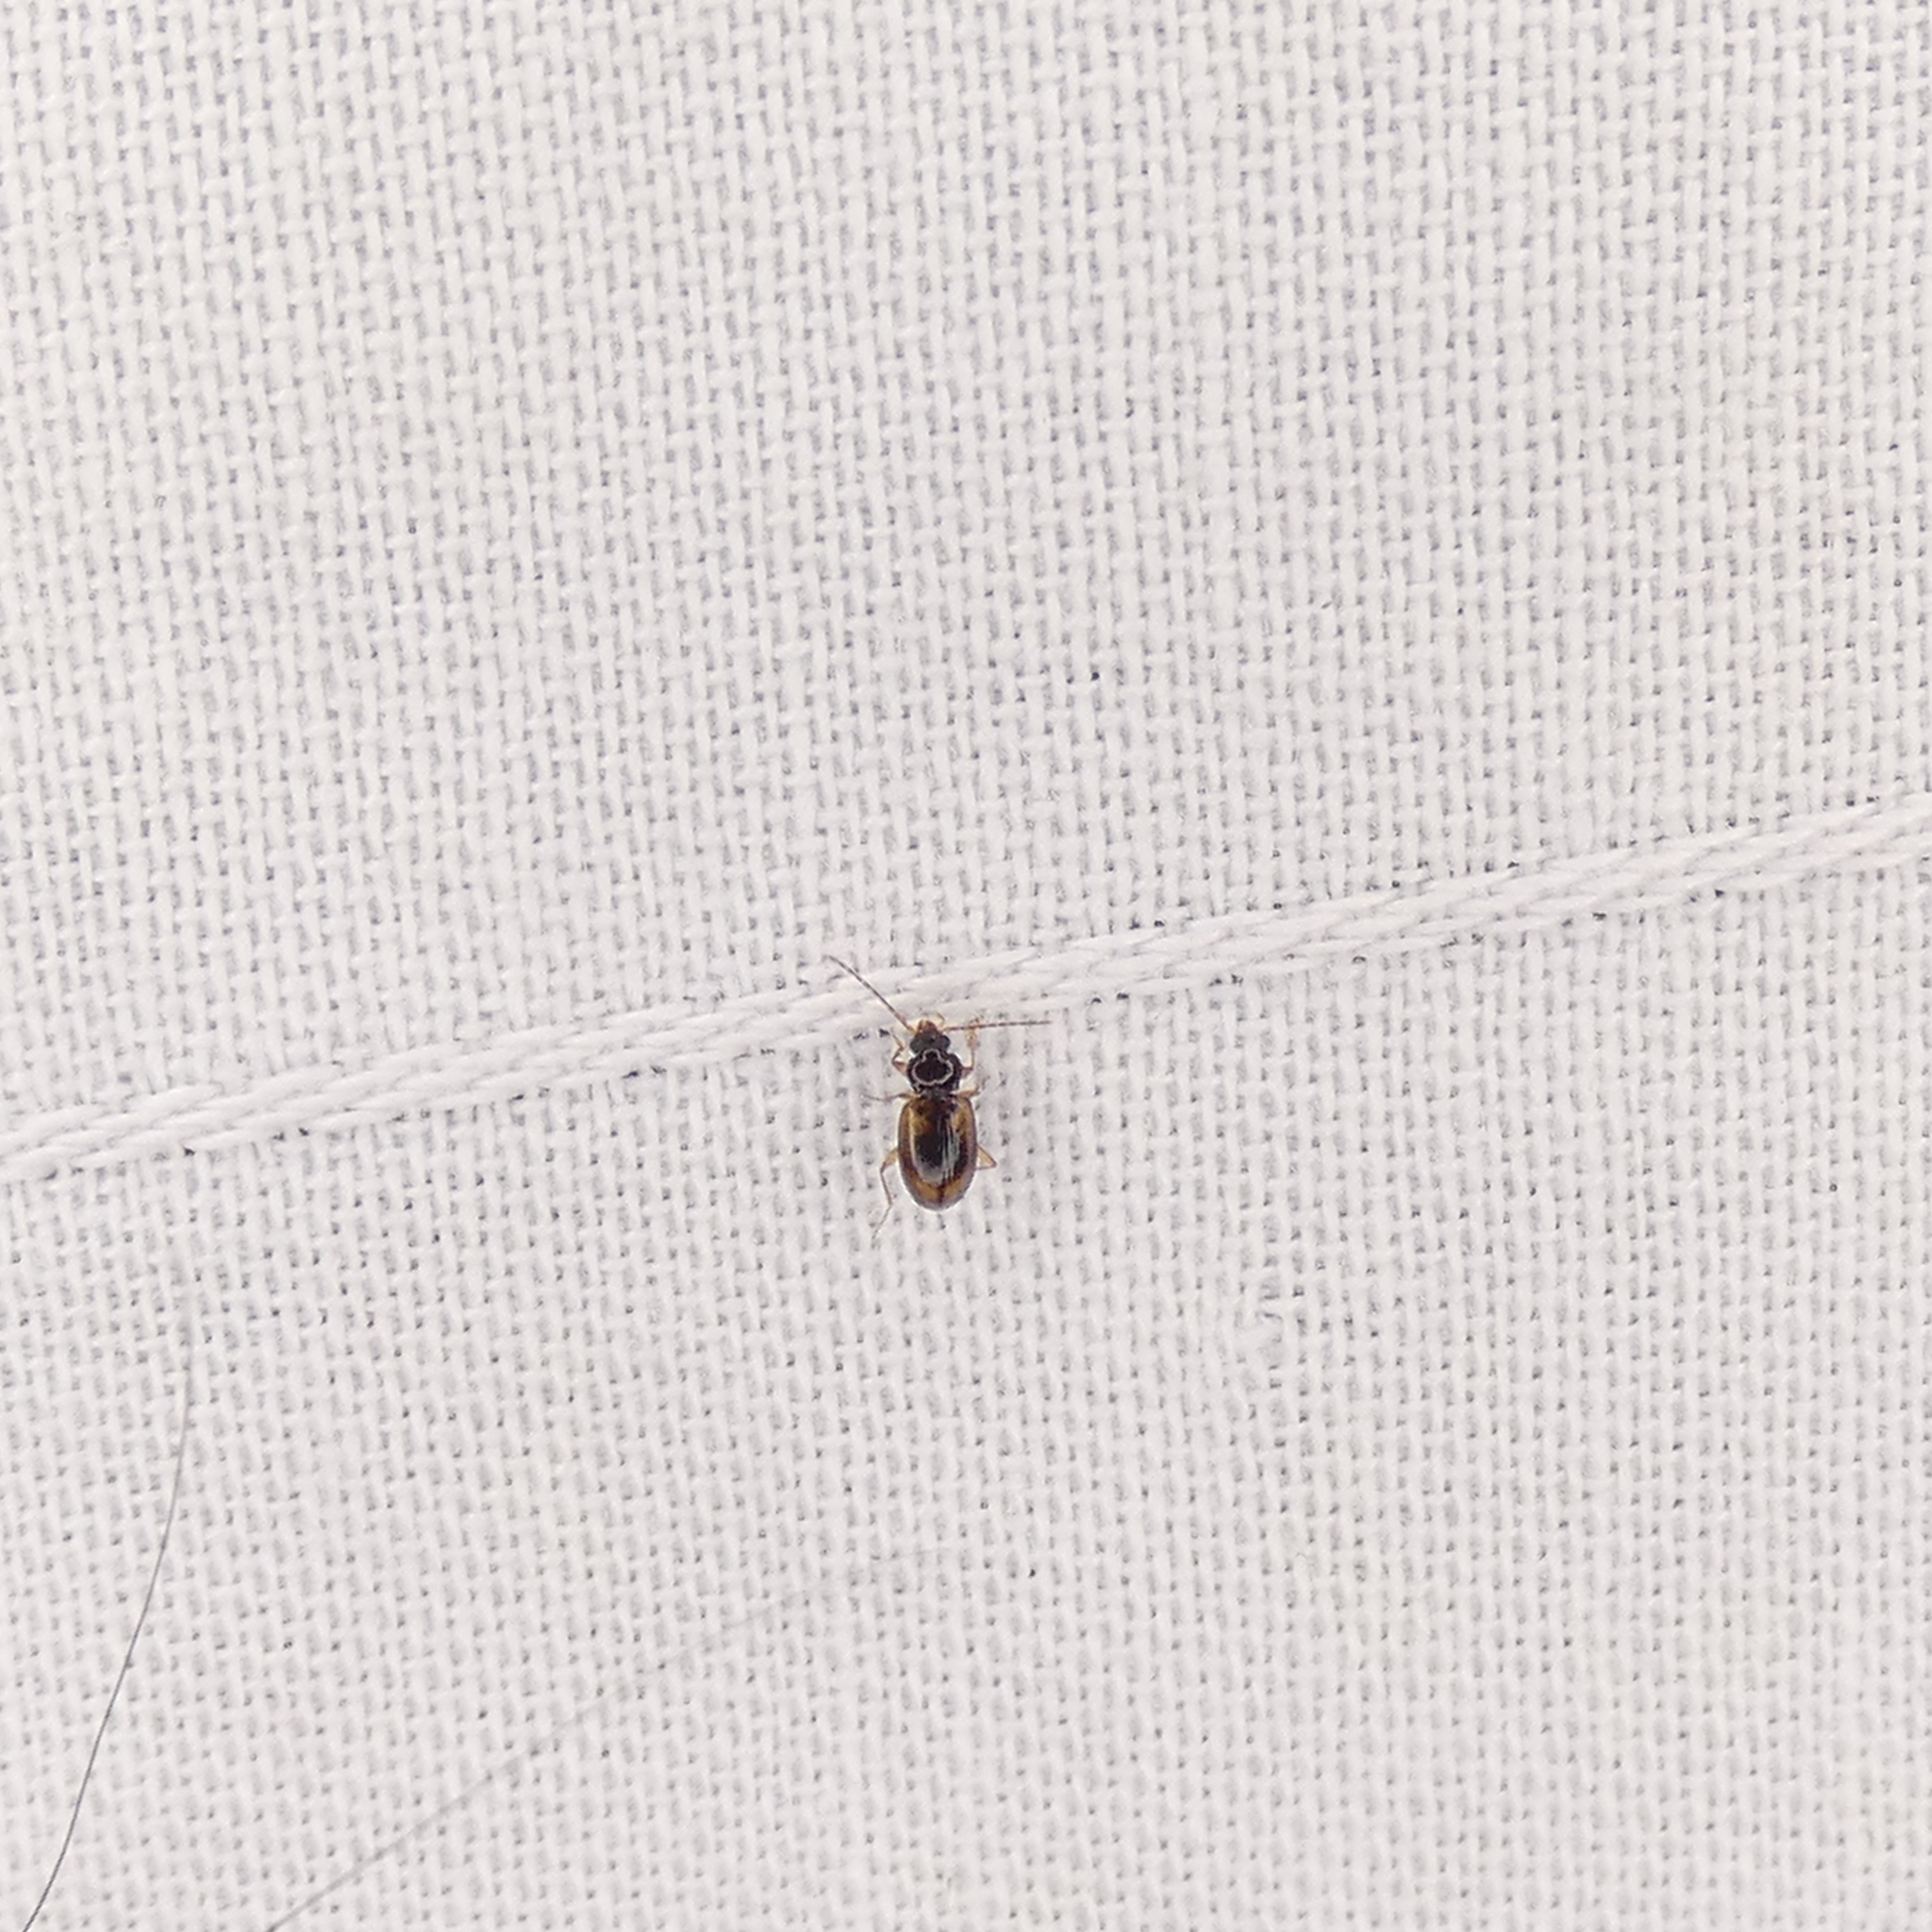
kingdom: Animalia
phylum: Arthropoda
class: Insecta
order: Coleoptera
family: Carabidae
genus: Tachys
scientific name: Tachys proximus
